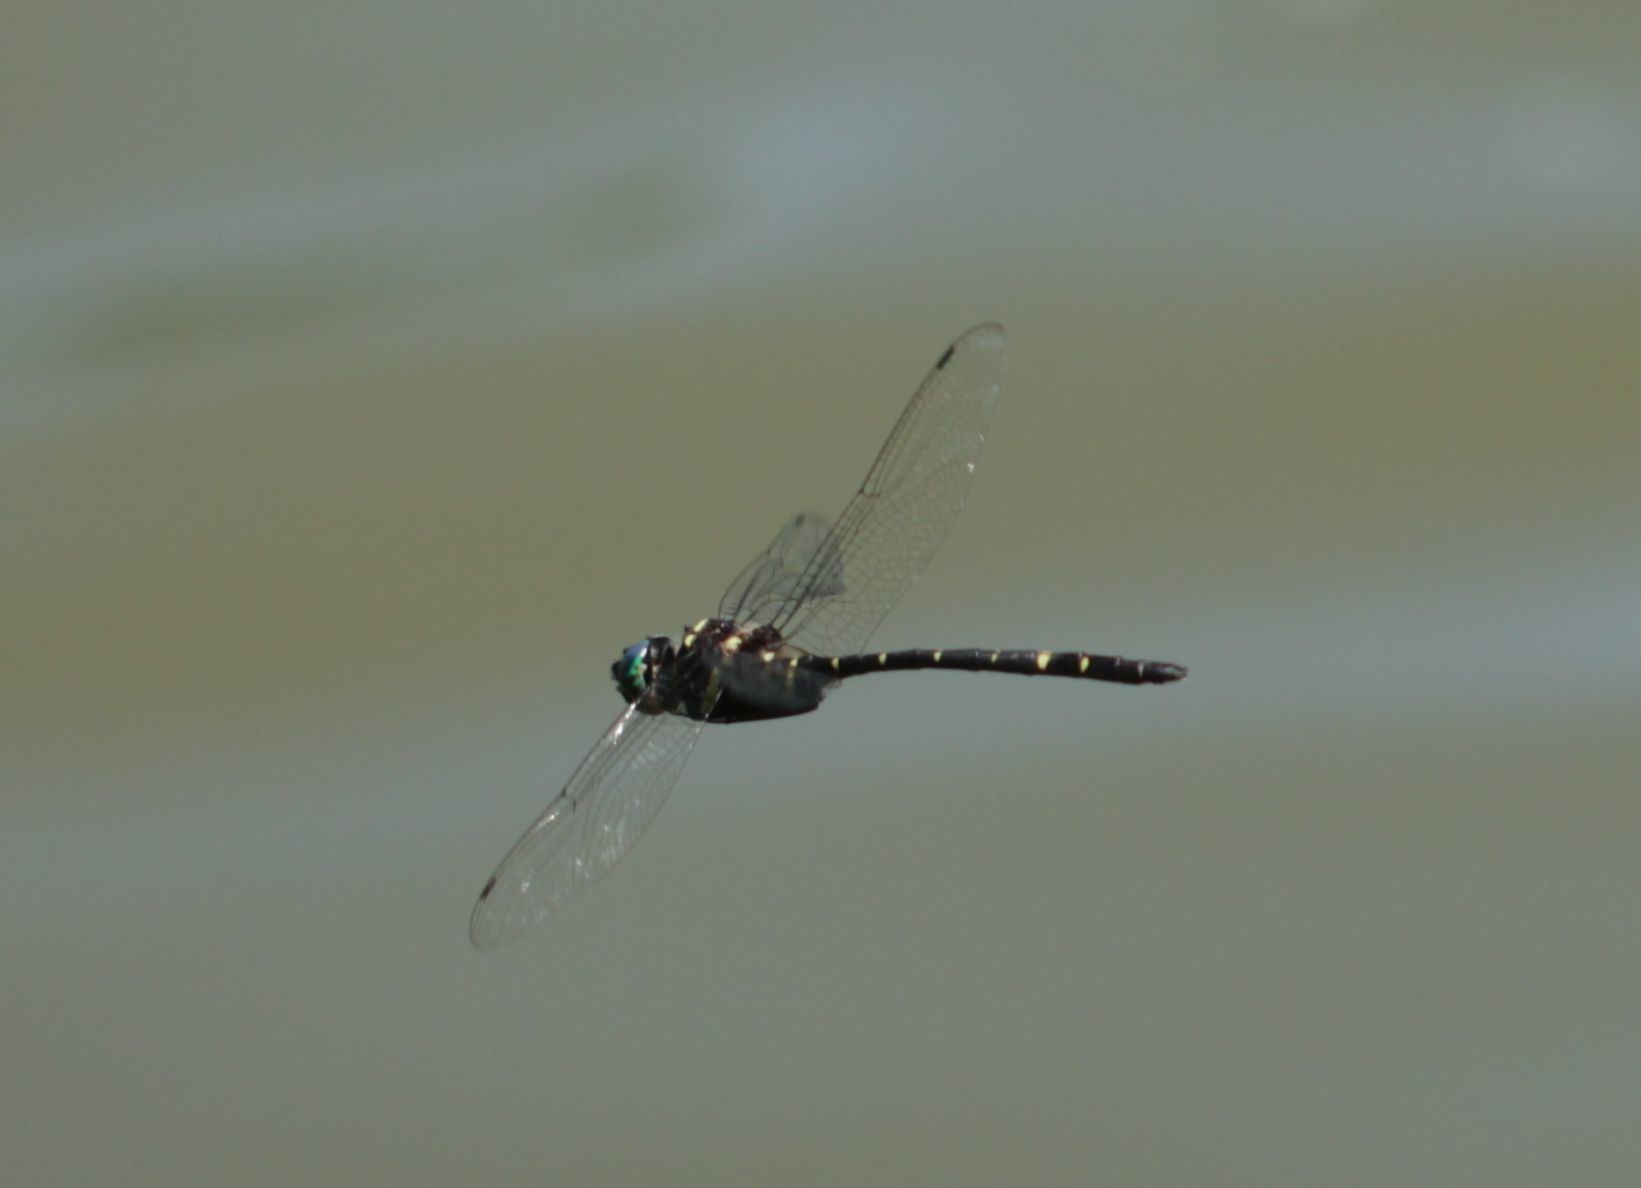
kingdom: Animalia
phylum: Arthropoda
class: Insecta
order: Odonata
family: Macromiidae
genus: Macromia
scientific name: Macromia taeniolata
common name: Royal river cruiser
